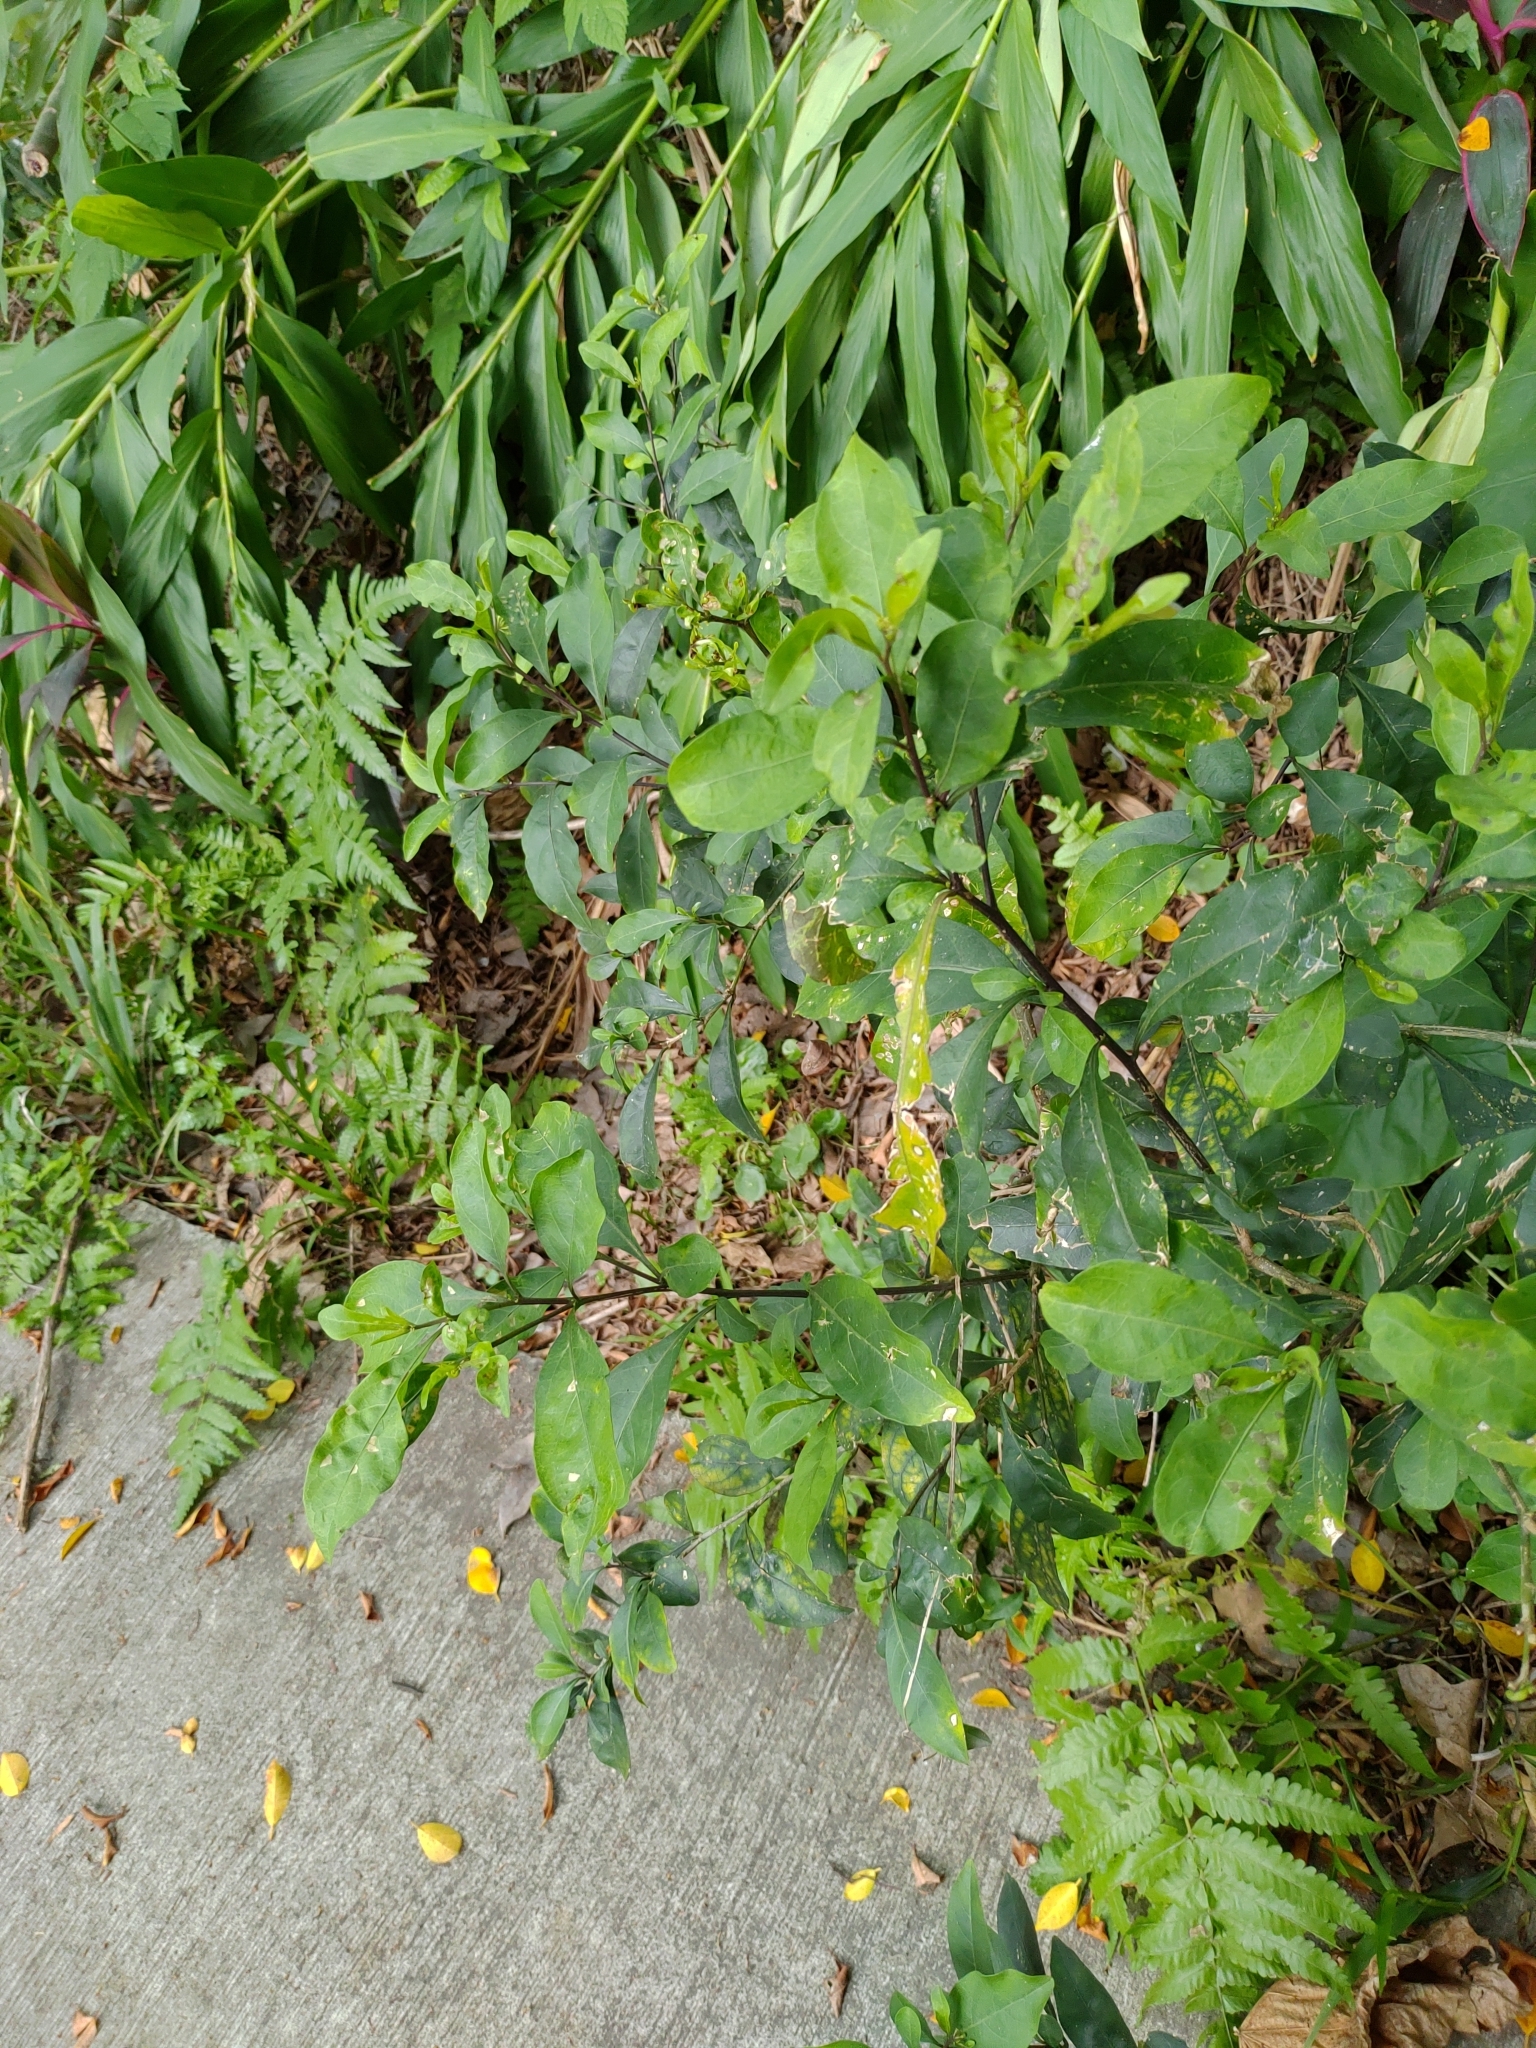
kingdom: Plantae
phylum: Tracheophyta
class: Magnoliopsida
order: Solanales
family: Solanaceae
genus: Solanum
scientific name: Solanum diphyllum
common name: Twoleaf nightshade
